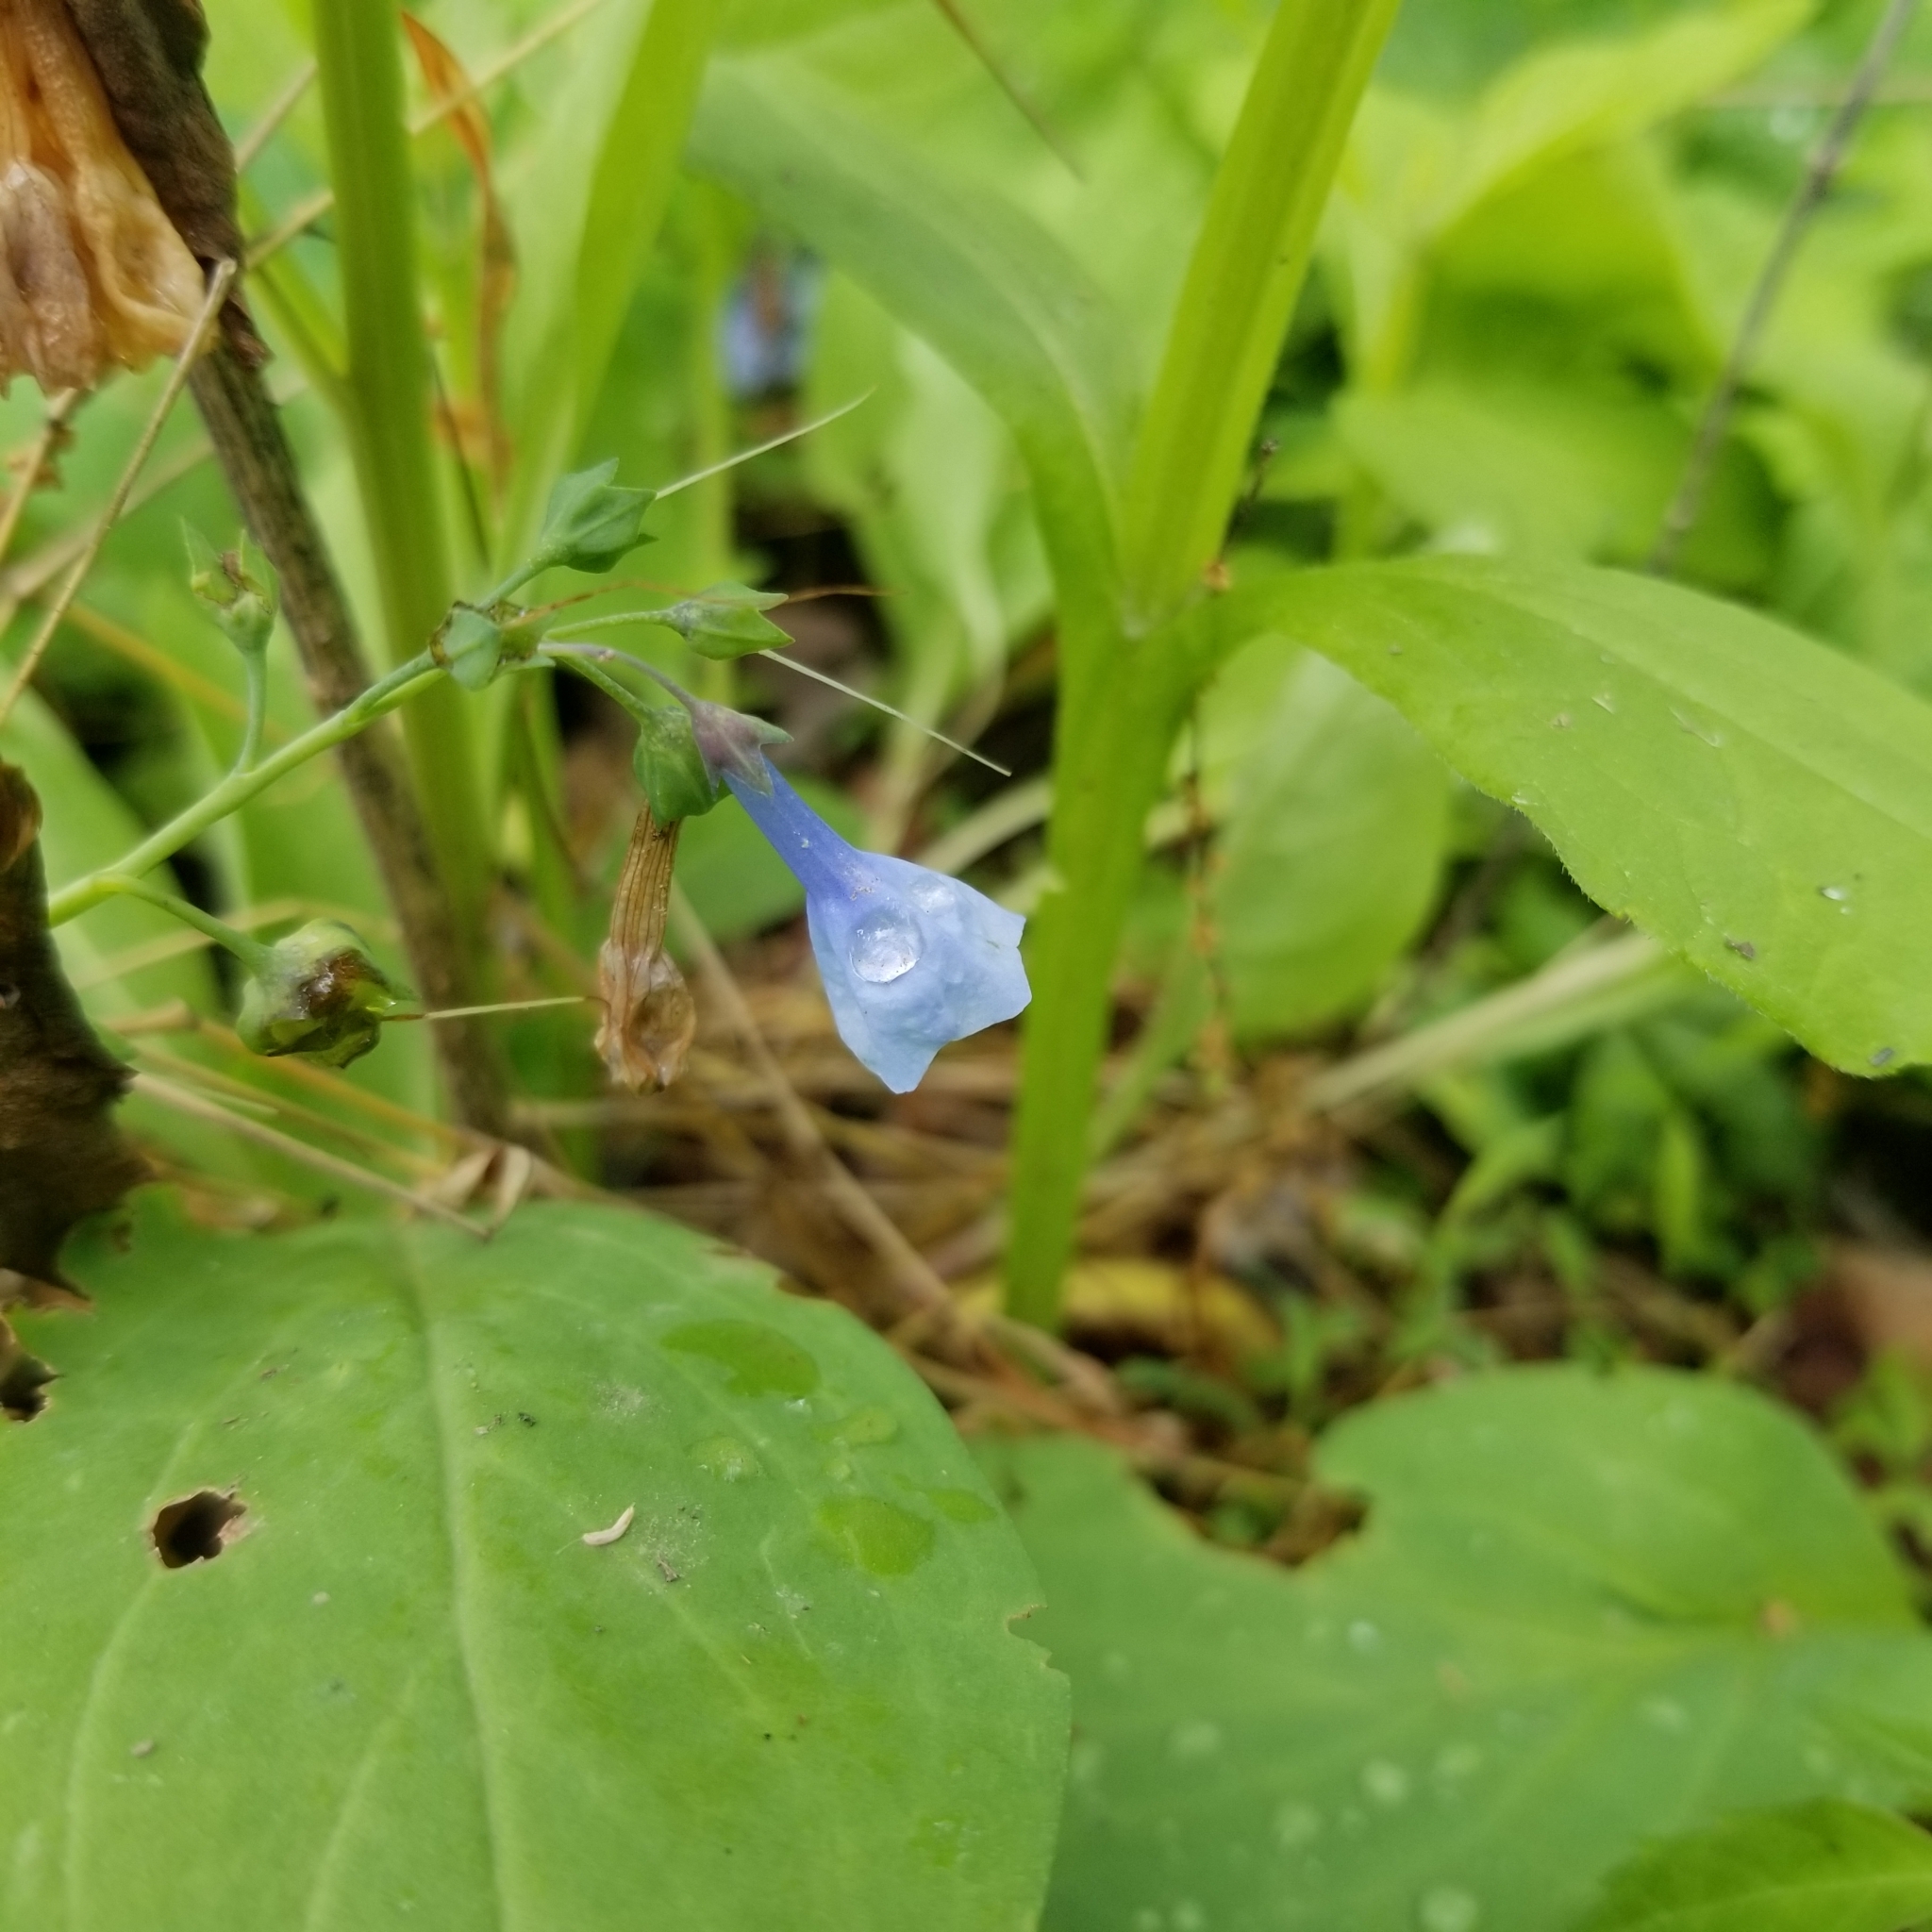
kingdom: Plantae
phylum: Tracheophyta
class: Magnoliopsida
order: Boraginales
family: Boraginaceae
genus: Mertensia
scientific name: Mertensia virginica
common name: Virginia bluebells
